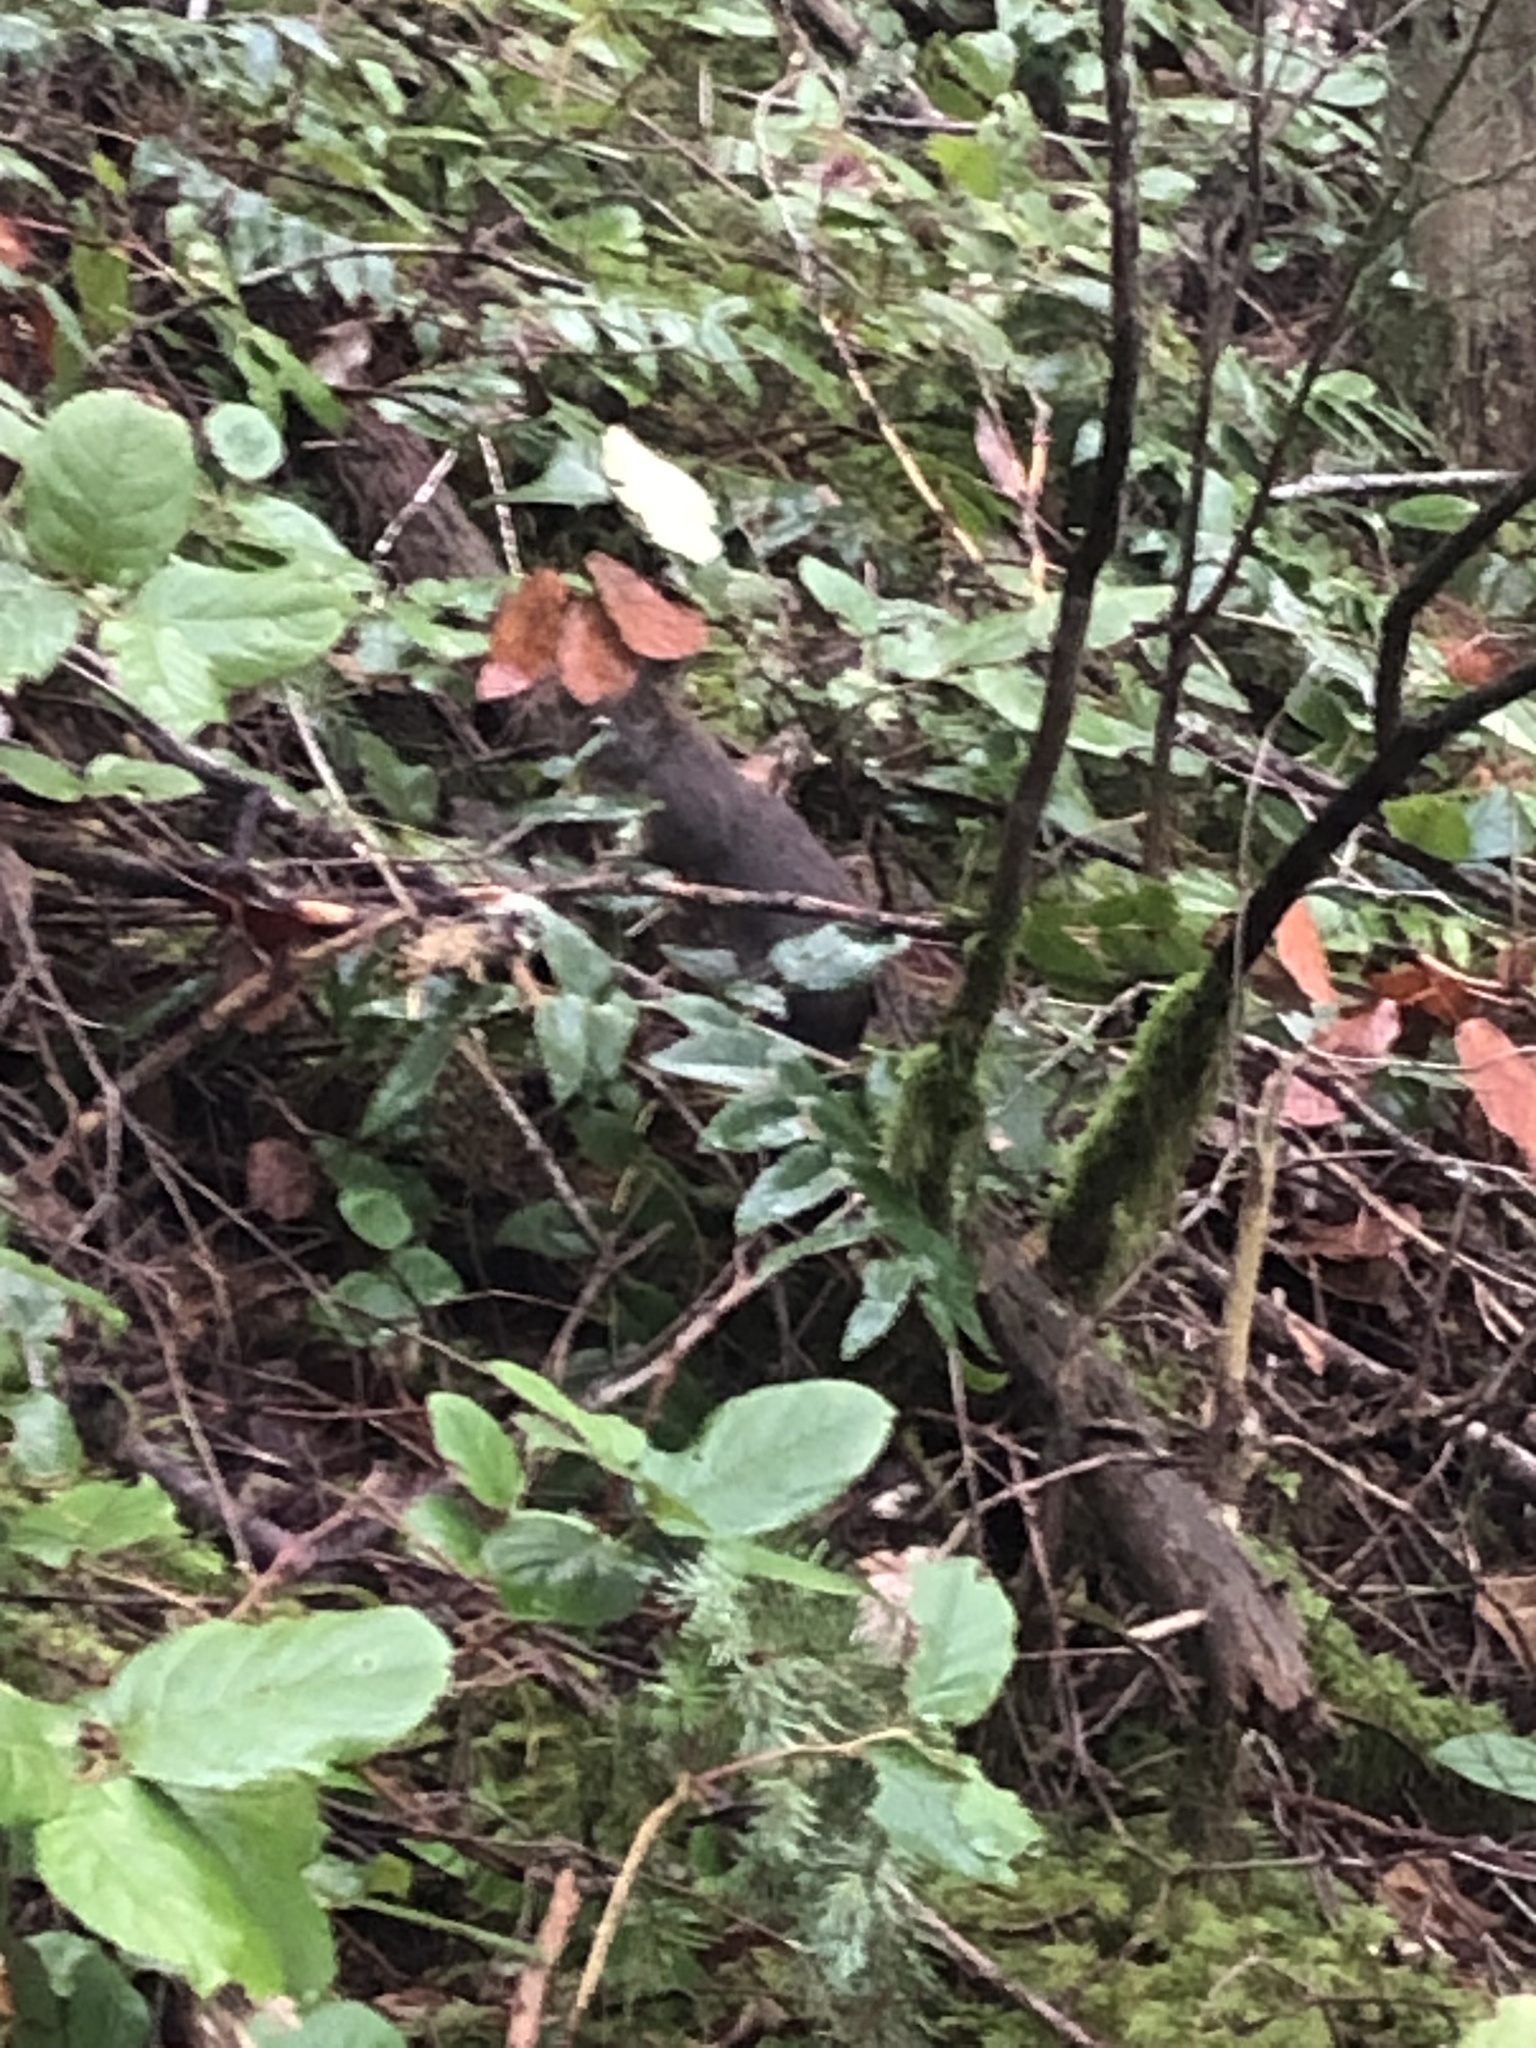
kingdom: Animalia
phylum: Chordata
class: Mammalia
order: Rodentia
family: Sciuridae
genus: Tamiasciurus
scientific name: Tamiasciurus douglasii
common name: Douglas's squirrel
